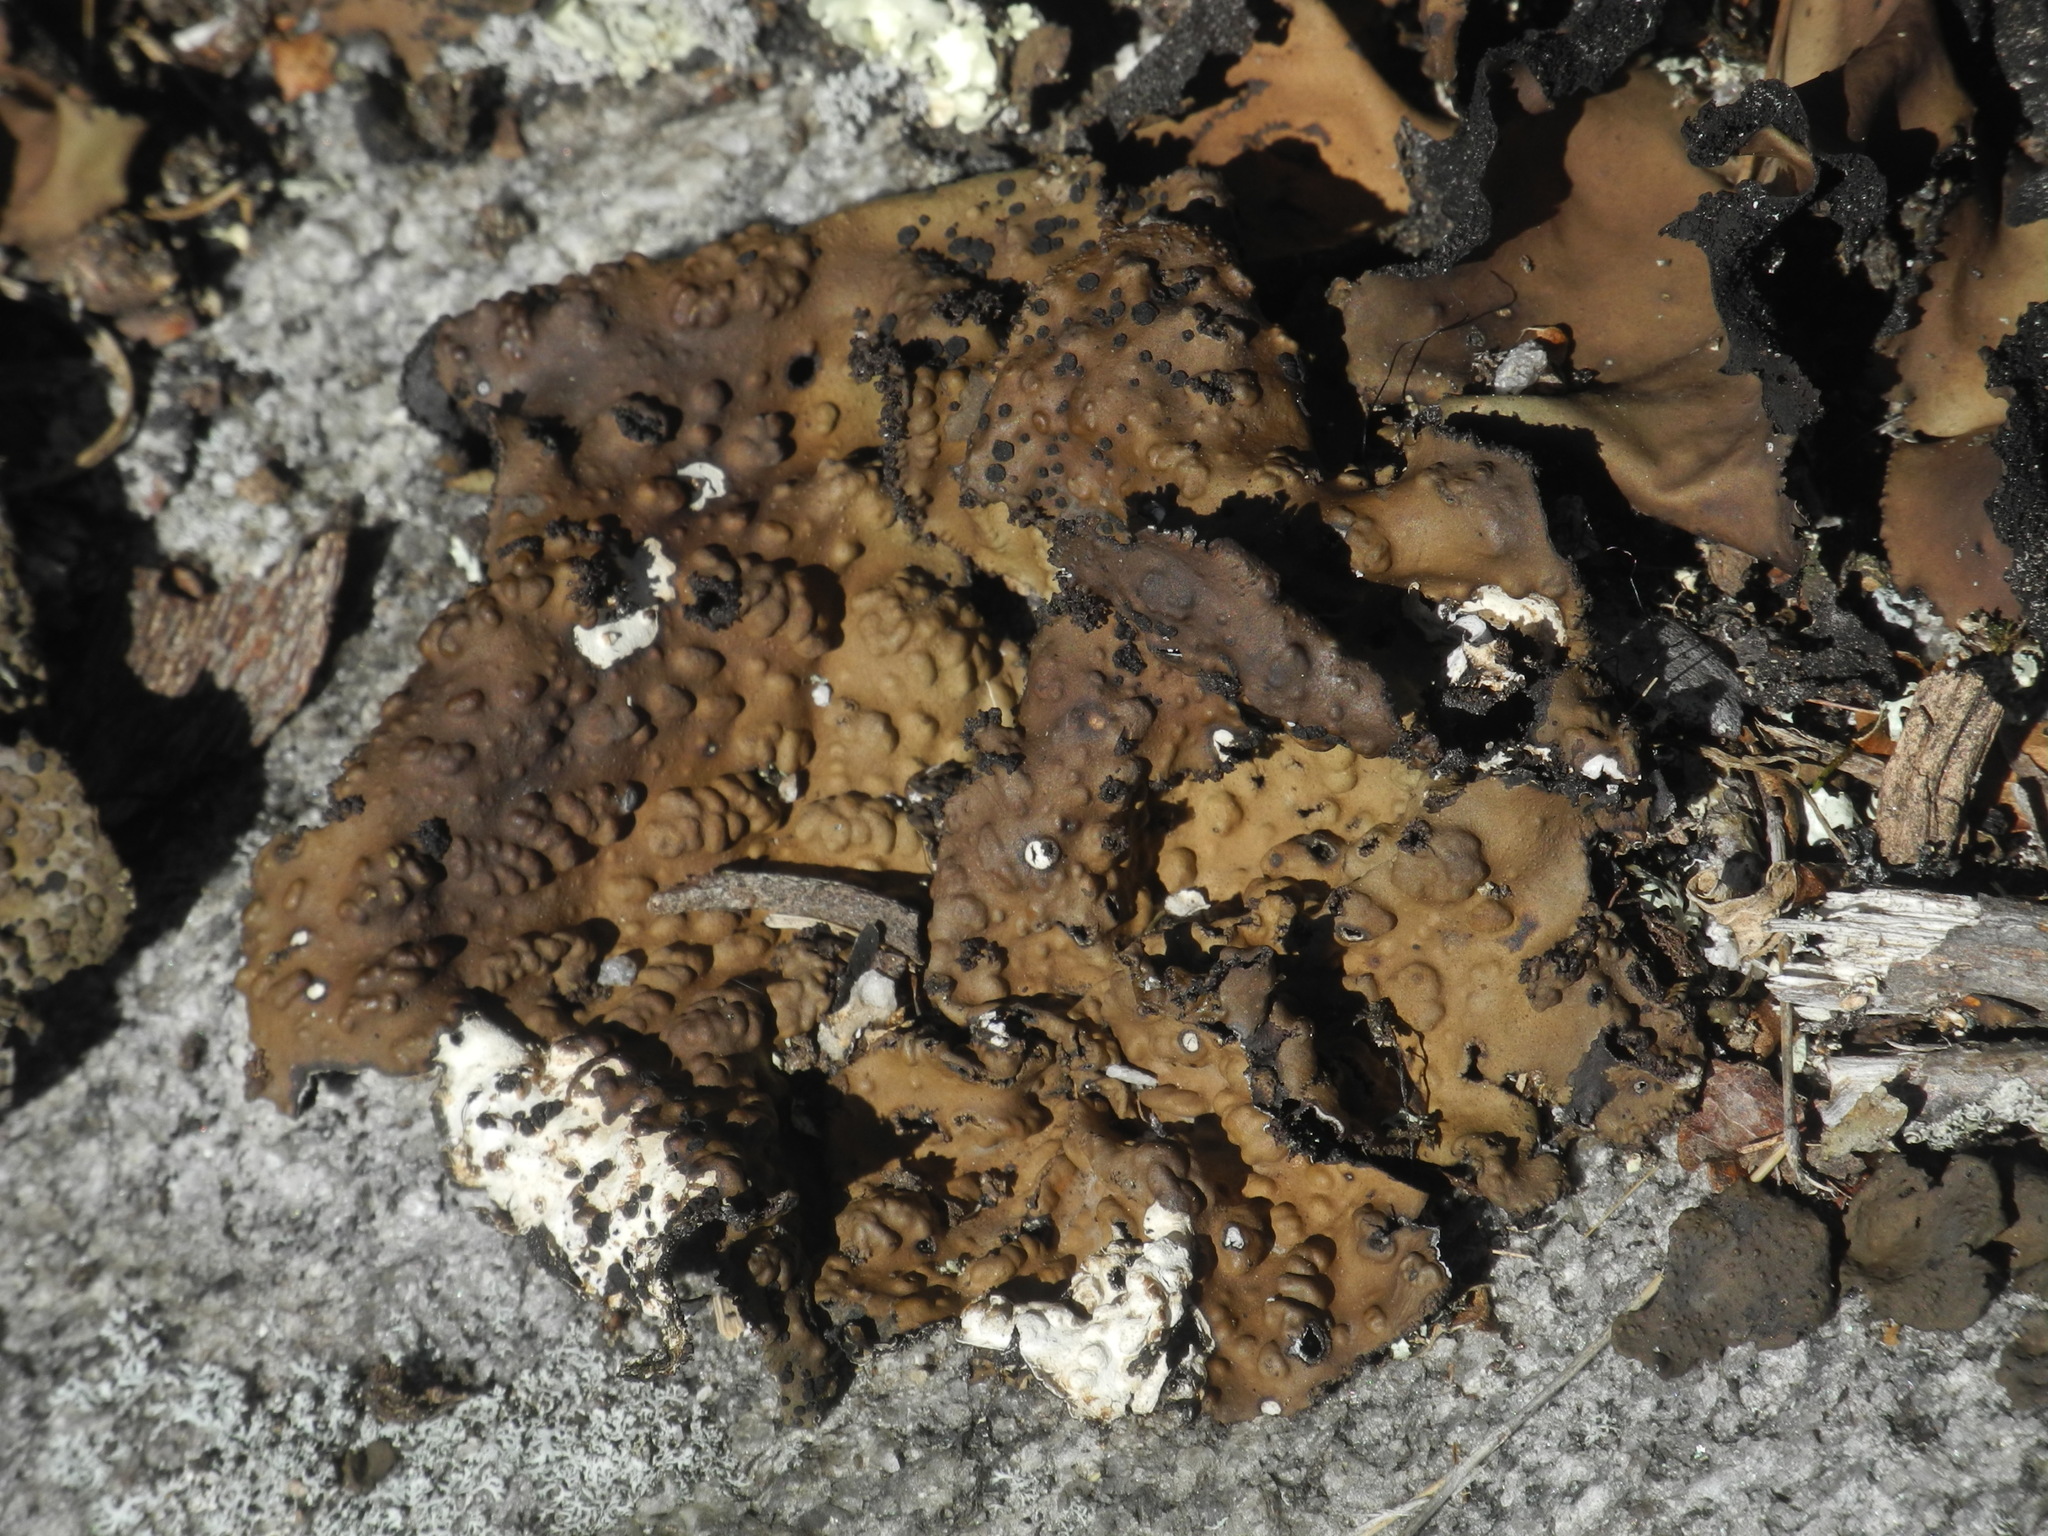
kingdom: Fungi
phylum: Ascomycota
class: Lecanoromycetes
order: Umbilicariales
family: Umbilicariaceae
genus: Lasallia
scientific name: Lasallia pensylvanica
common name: Blackened toadskin lichen
